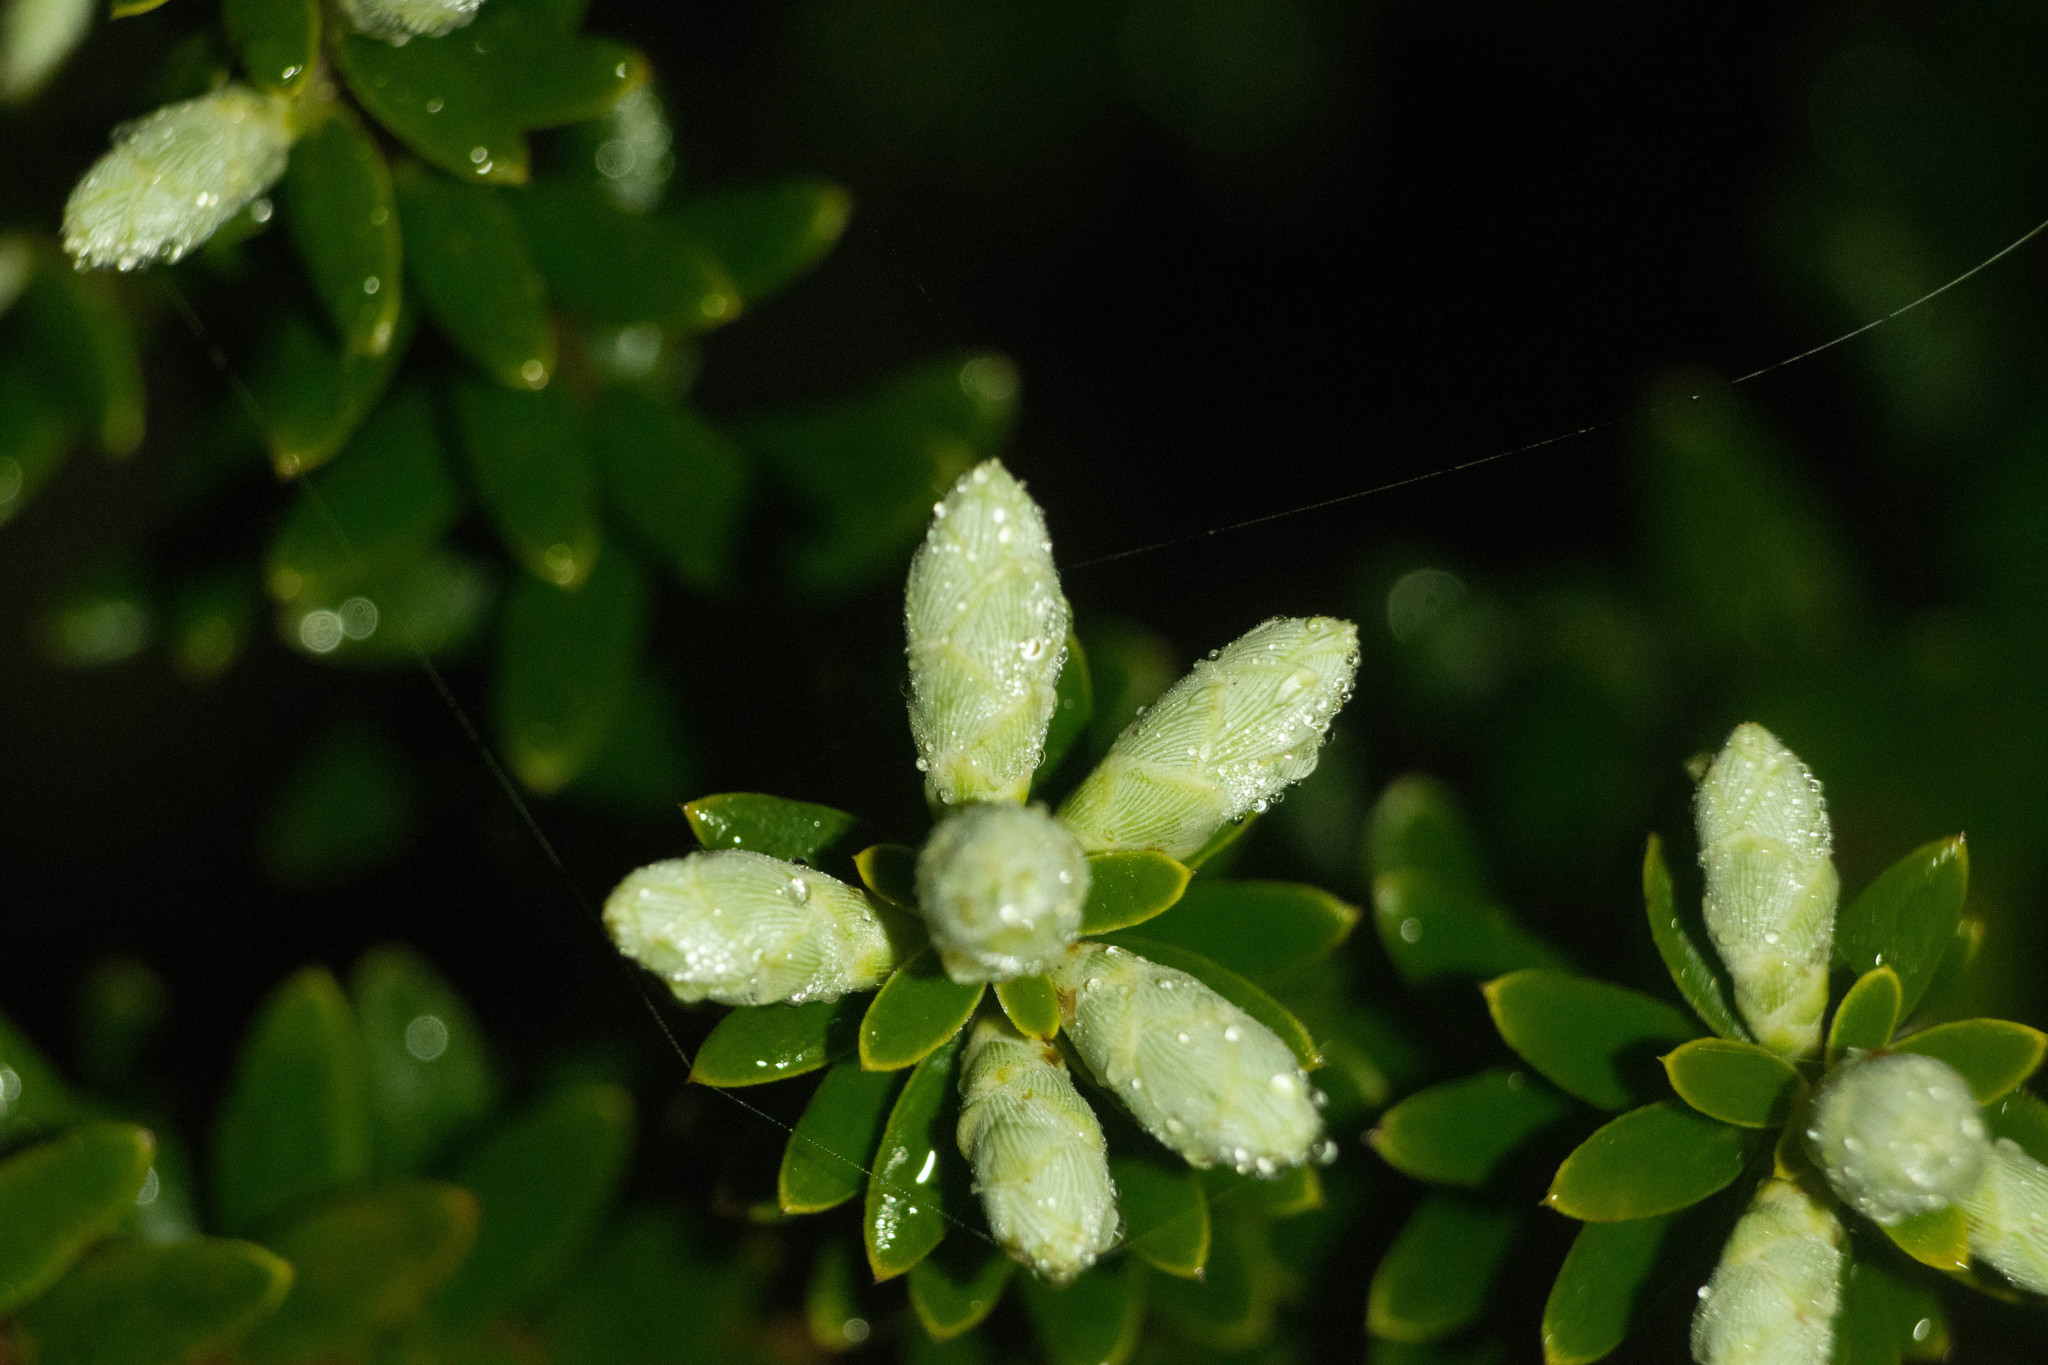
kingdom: Plantae
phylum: Tracheophyta
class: Magnoliopsida
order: Ericales
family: Ericaceae
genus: Leptecophylla
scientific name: Leptecophylla tameiameiae
